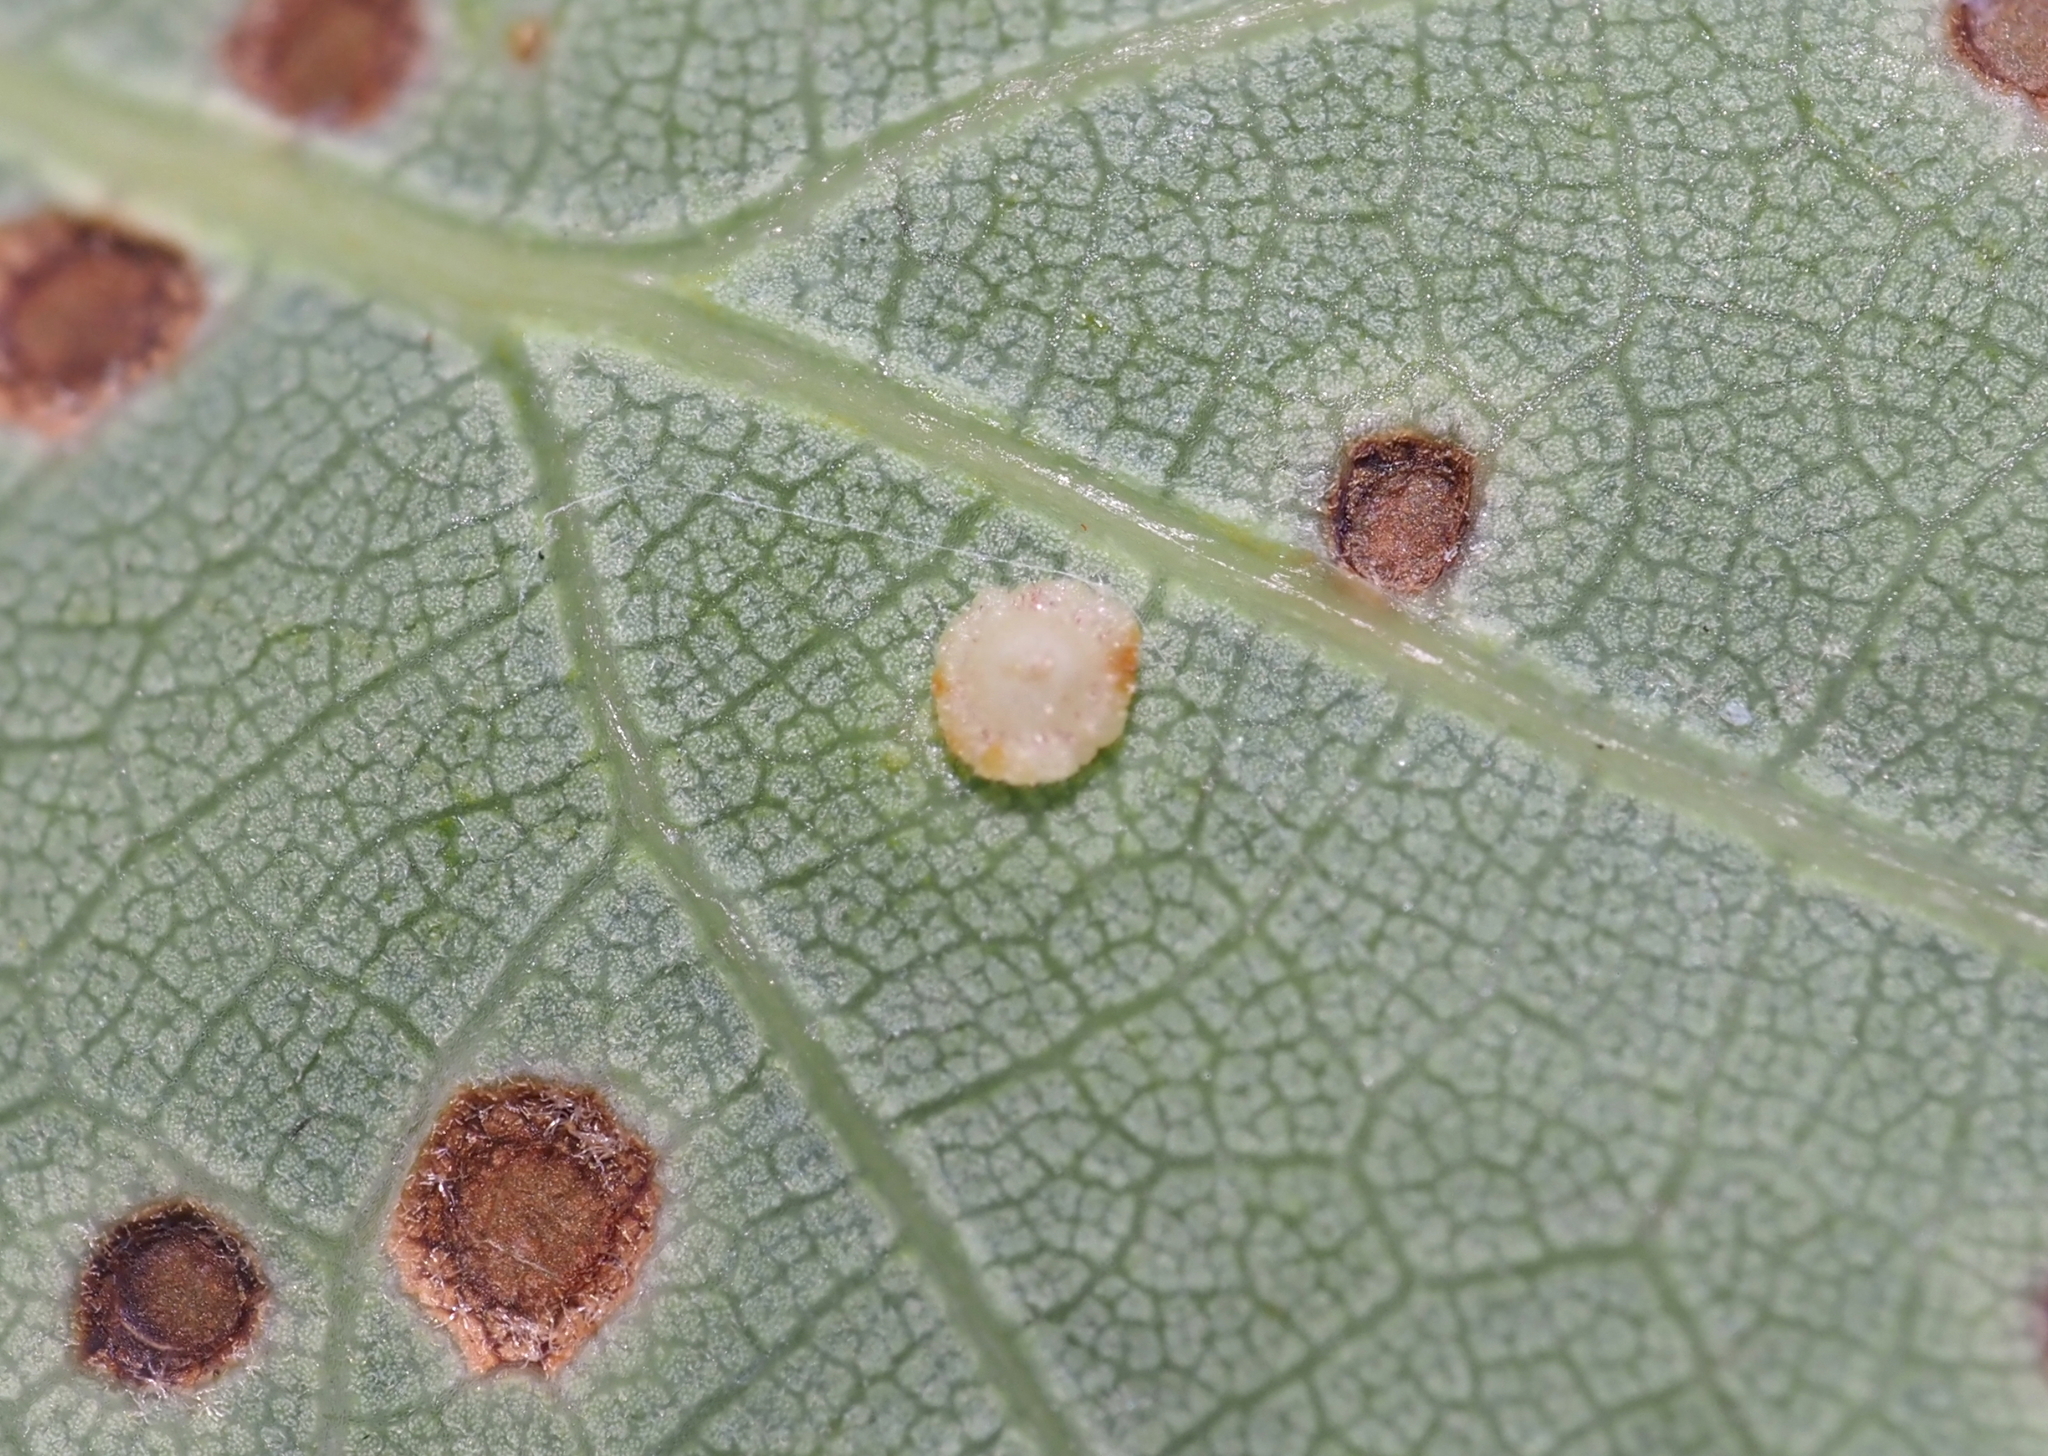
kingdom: Animalia
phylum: Arthropoda
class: Insecta
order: Hymenoptera
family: Cynipidae
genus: Neuroterus
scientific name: Neuroterus
